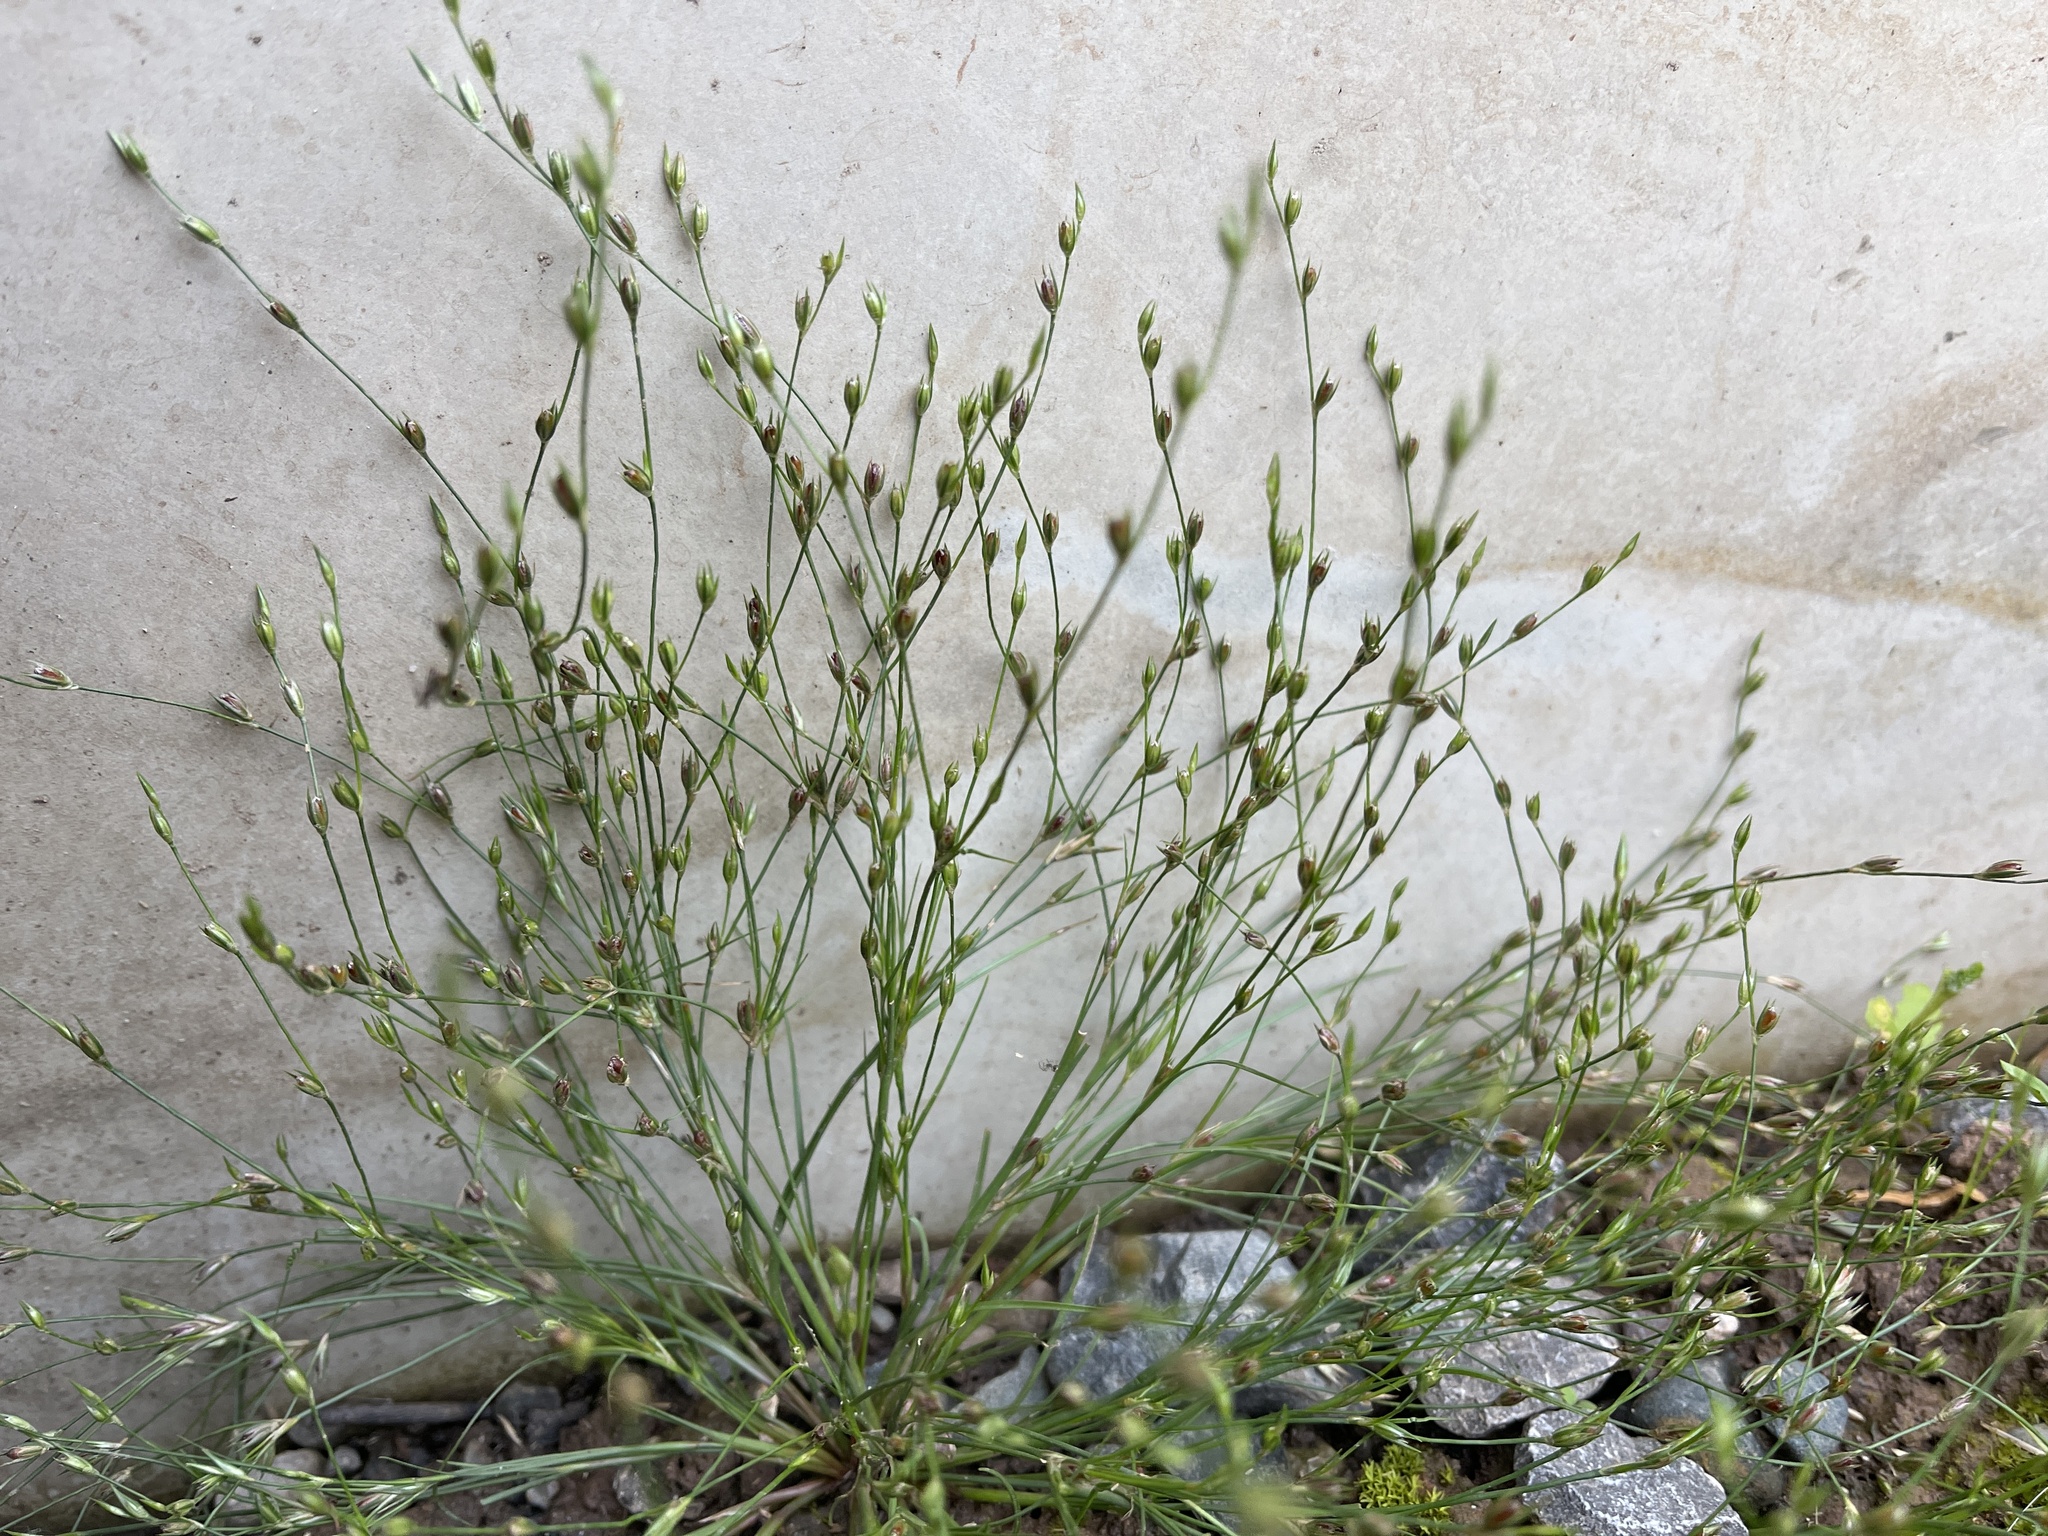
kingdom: Plantae
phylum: Tracheophyta
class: Liliopsida
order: Poales
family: Juncaceae
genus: Juncus
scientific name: Juncus bufonius
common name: Toad rush
